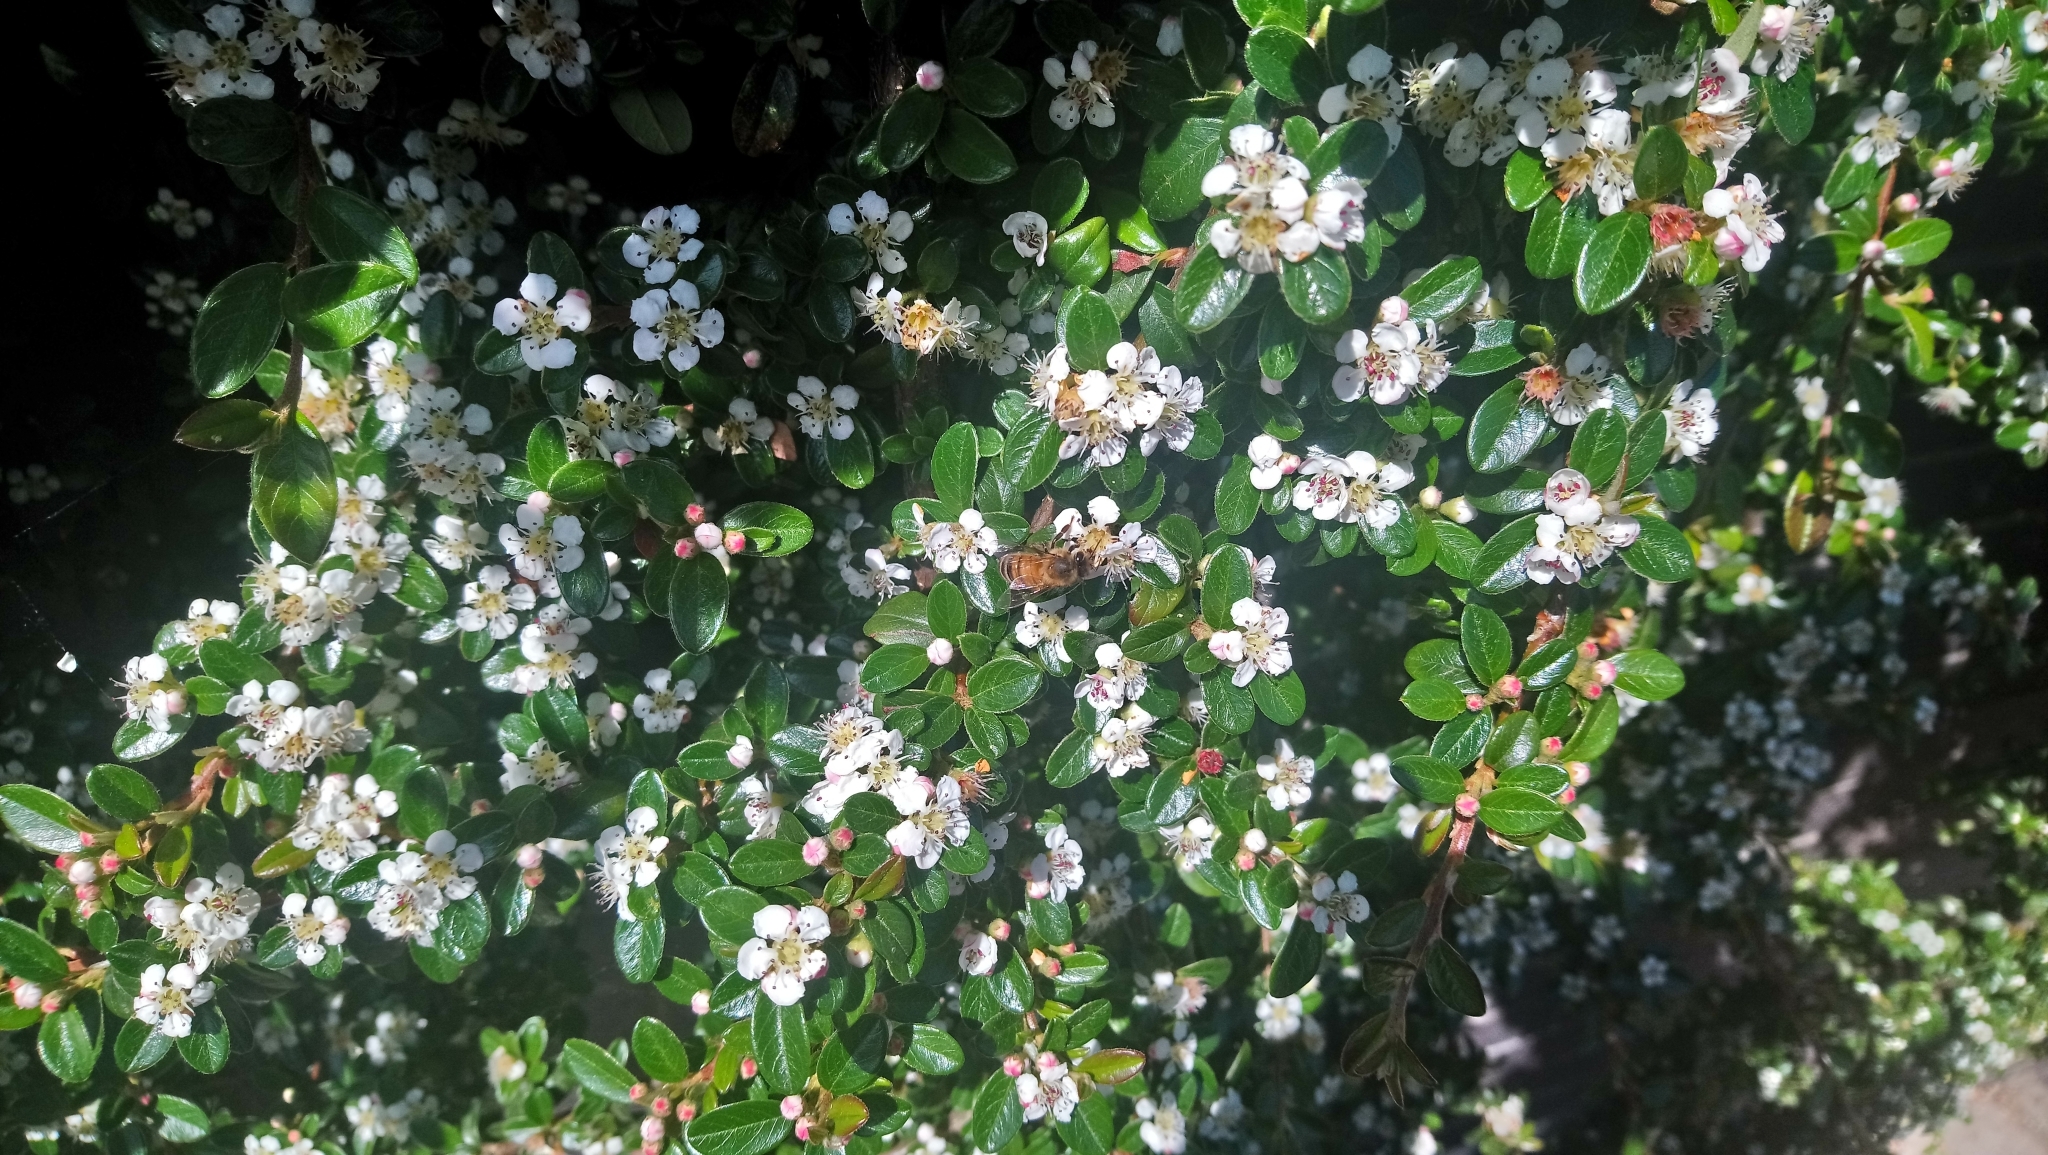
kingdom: Animalia
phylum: Arthropoda
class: Insecta
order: Hymenoptera
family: Apidae
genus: Apis
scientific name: Apis mellifera
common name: Honey bee
